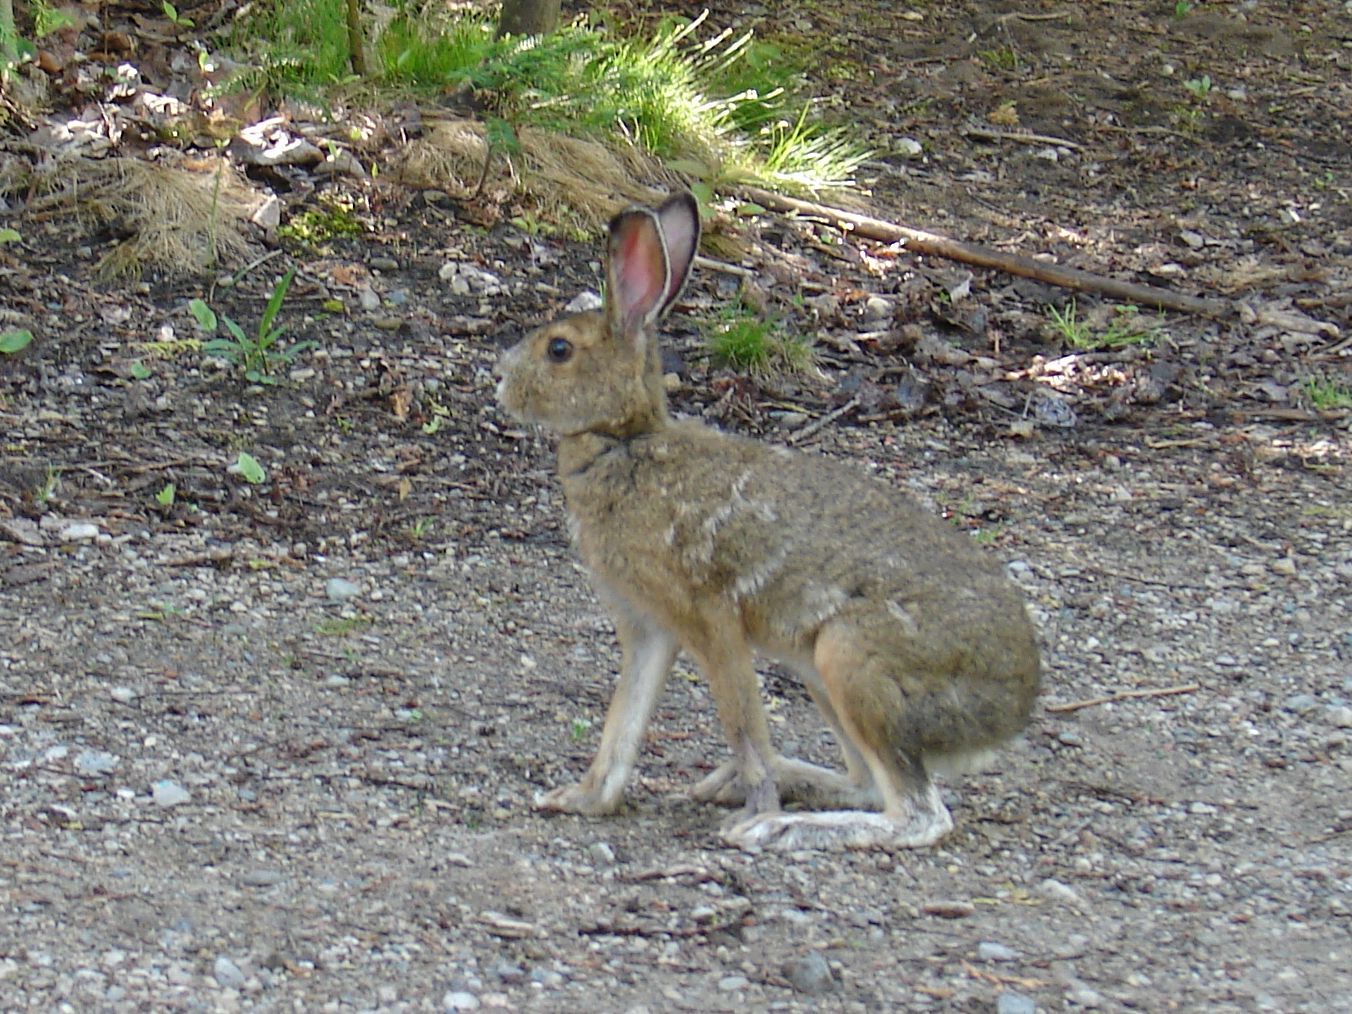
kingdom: Animalia
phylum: Chordata
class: Mammalia
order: Lagomorpha
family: Leporidae
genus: Lepus
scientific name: Lepus americanus
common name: Snowshoe hare
